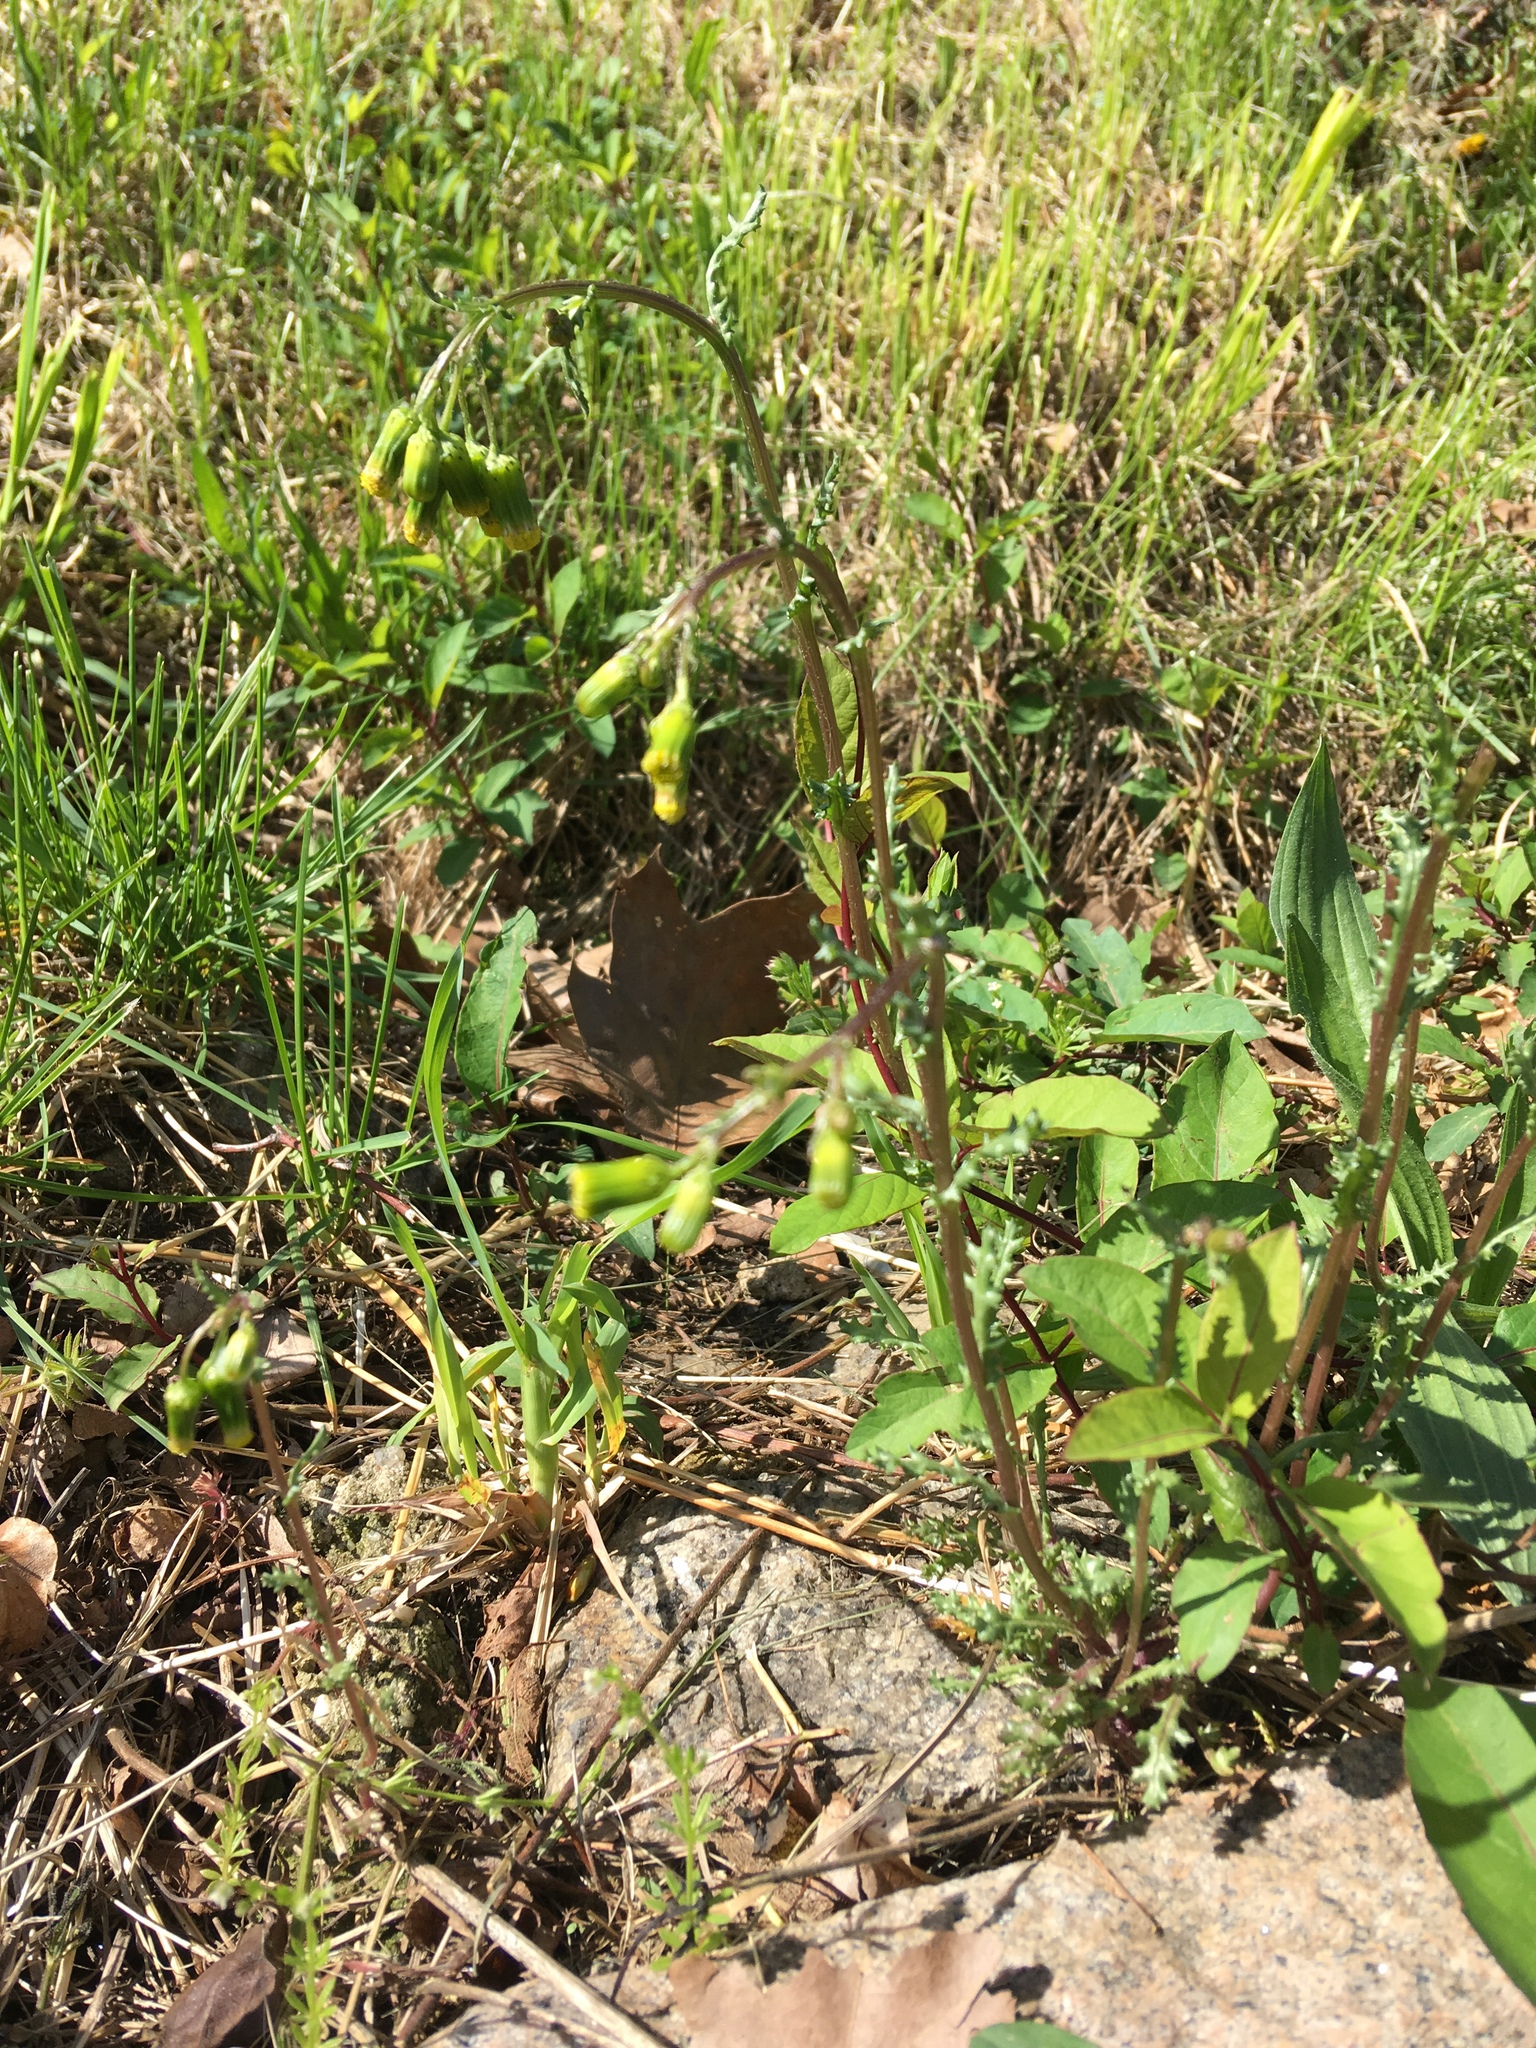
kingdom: Plantae
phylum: Tracheophyta
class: Magnoliopsida
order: Asterales
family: Asteraceae
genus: Senecio
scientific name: Senecio vulgaris
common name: Old-man-in-the-spring
